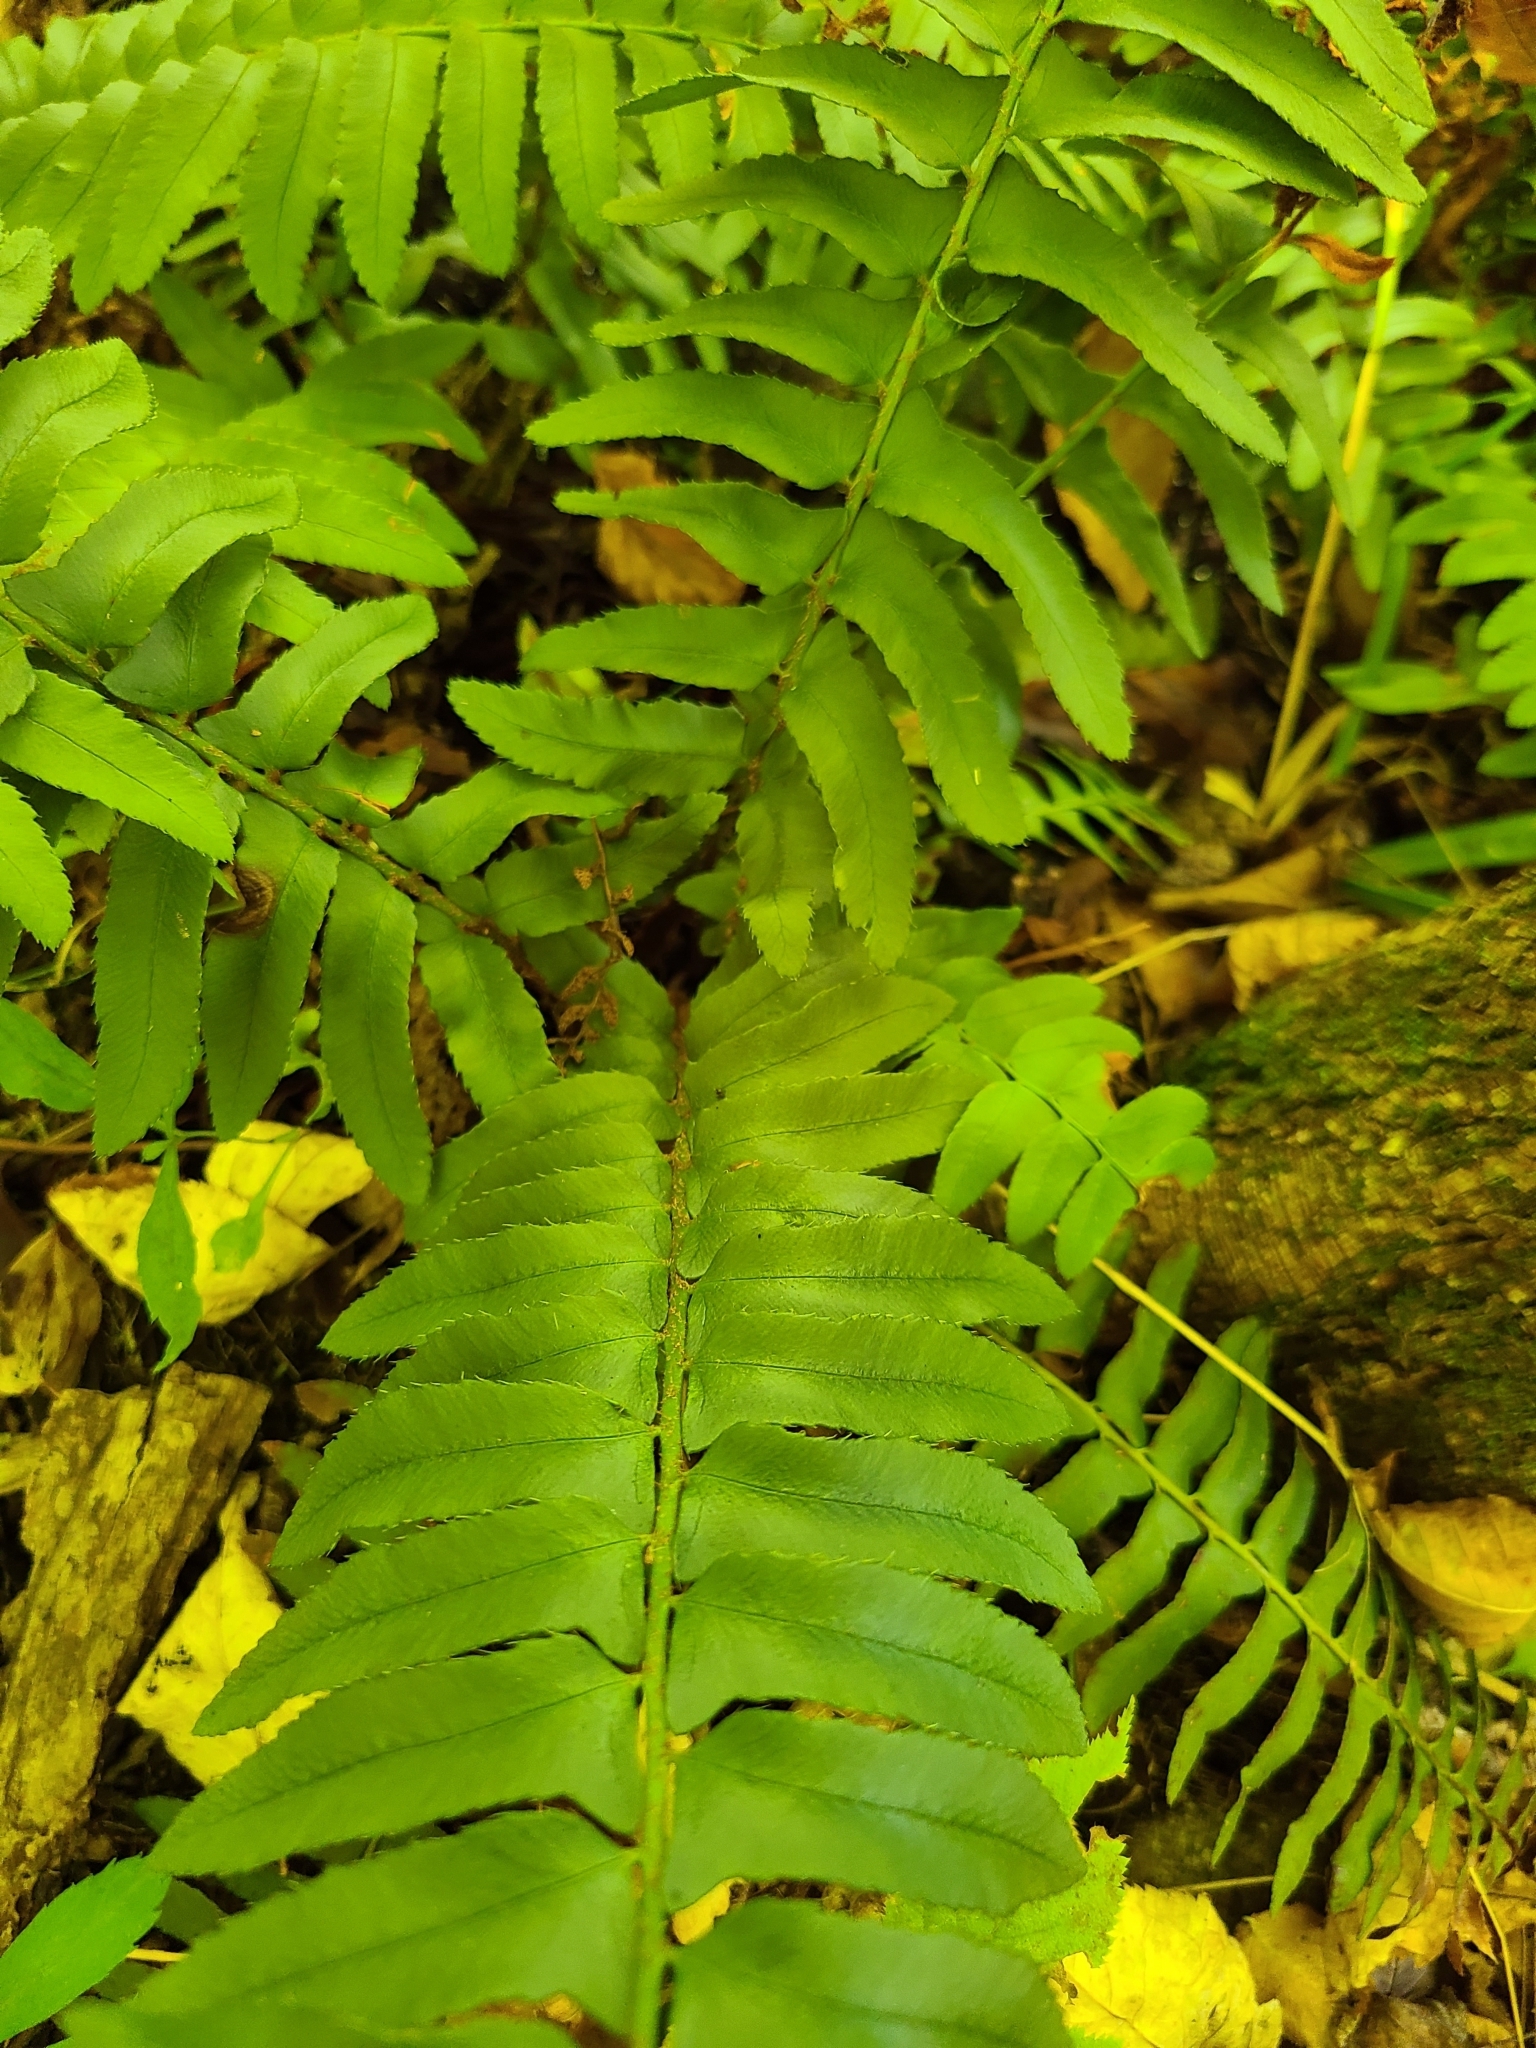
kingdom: Plantae
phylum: Tracheophyta
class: Polypodiopsida
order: Polypodiales
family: Dryopteridaceae
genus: Polystichum
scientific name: Polystichum acrostichoides
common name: Christmas fern
